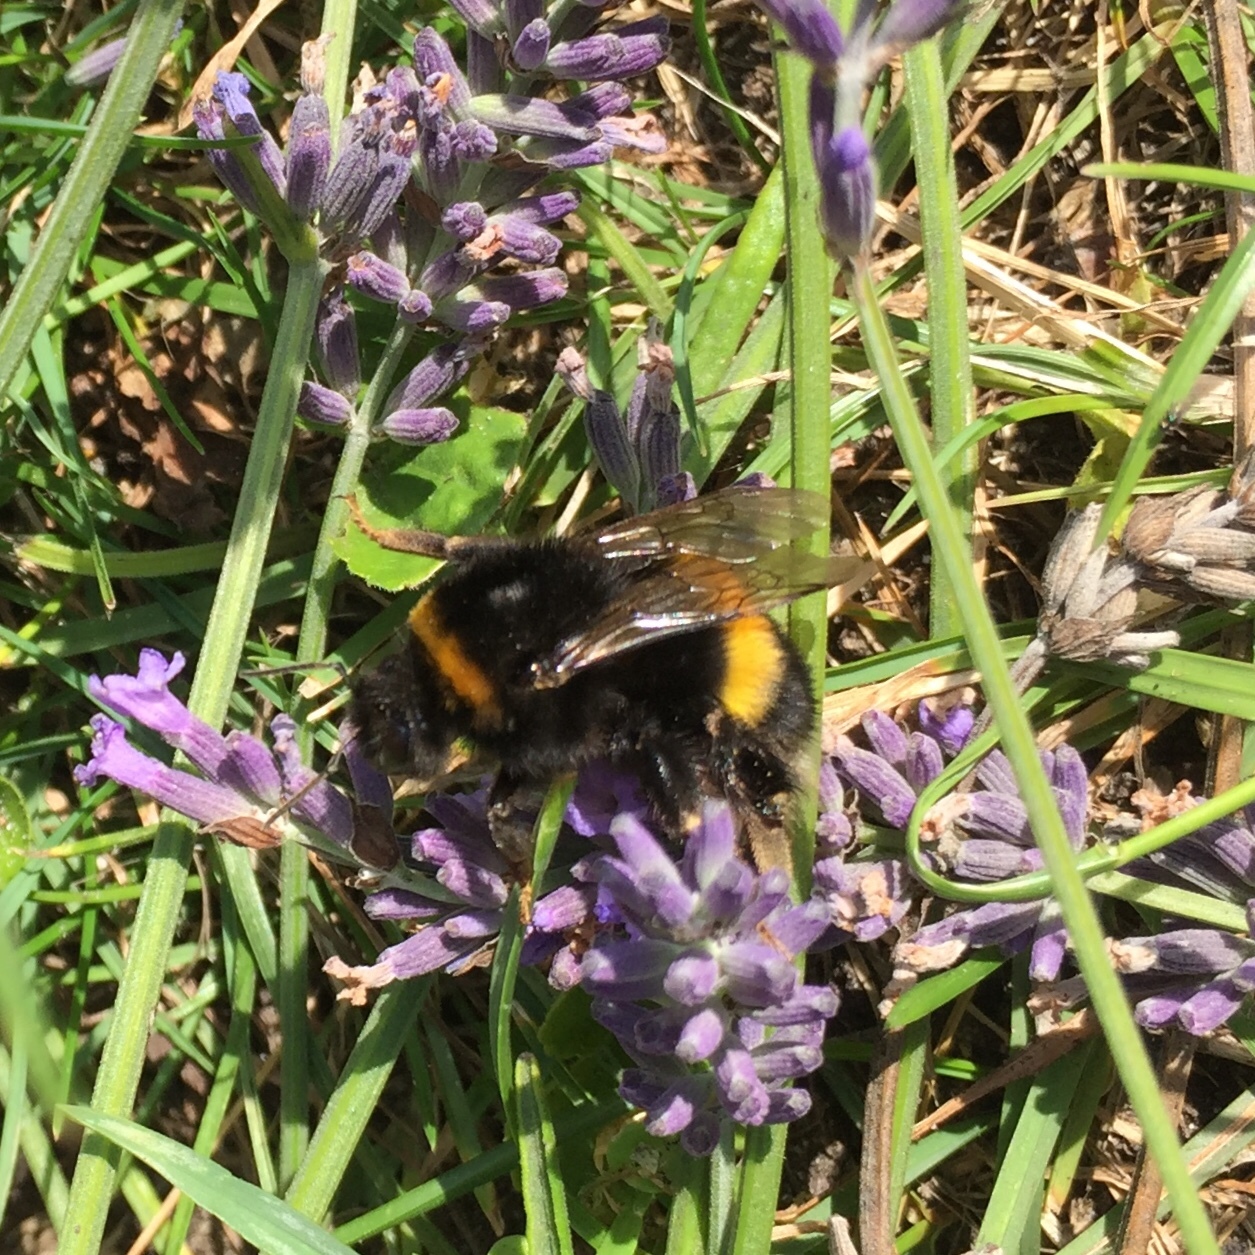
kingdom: Animalia
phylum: Arthropoda
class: Insecta
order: Hymenoptera
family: Apidae
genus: Bombus
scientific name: Bombus terrestris
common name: Buff-tailed bumblebee
